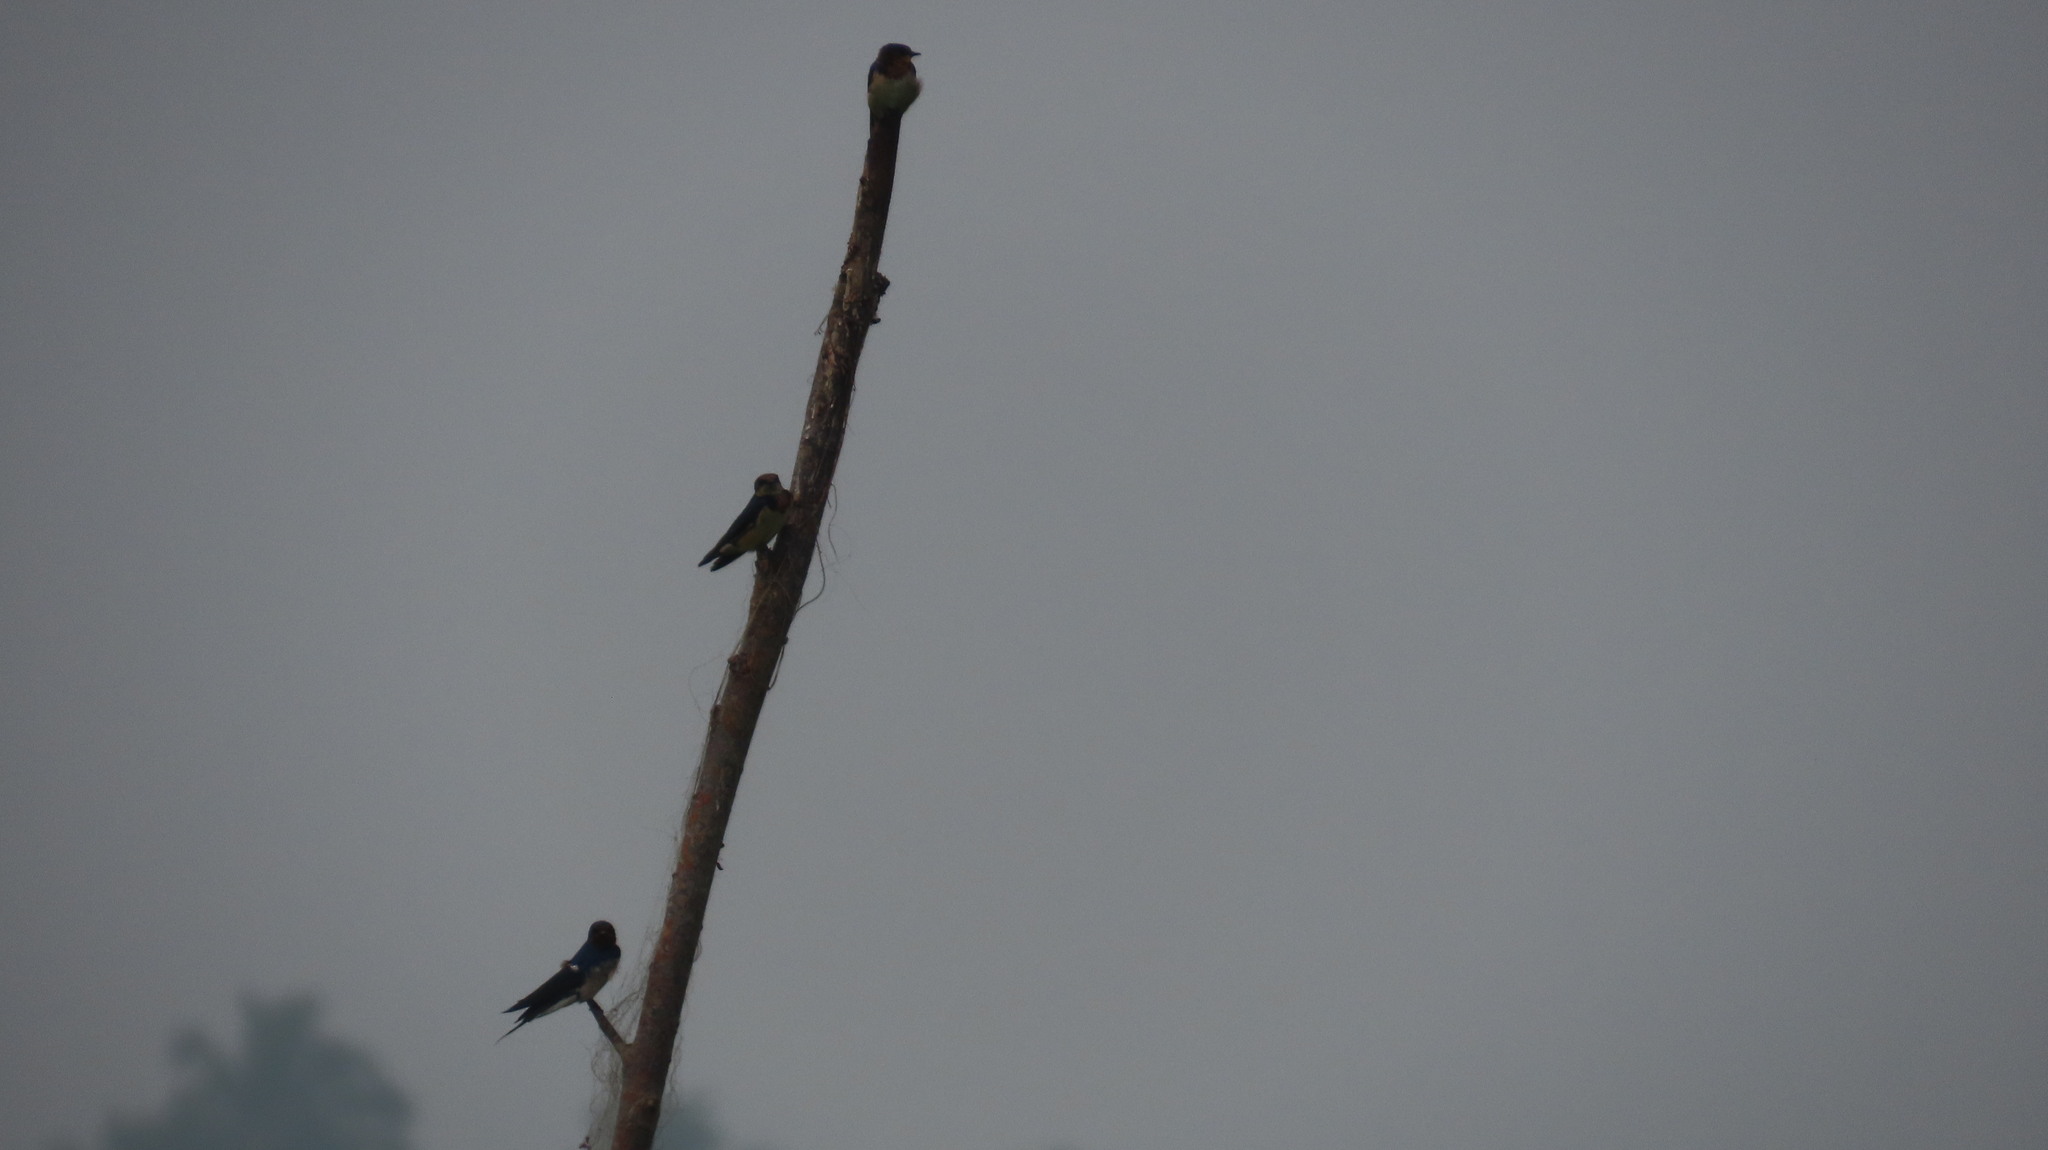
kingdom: Animalia
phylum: Chordata
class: Aves
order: Passeriformes
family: Hirundinidae
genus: Hirundo
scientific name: Hirundo rustica
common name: Barn swallow
